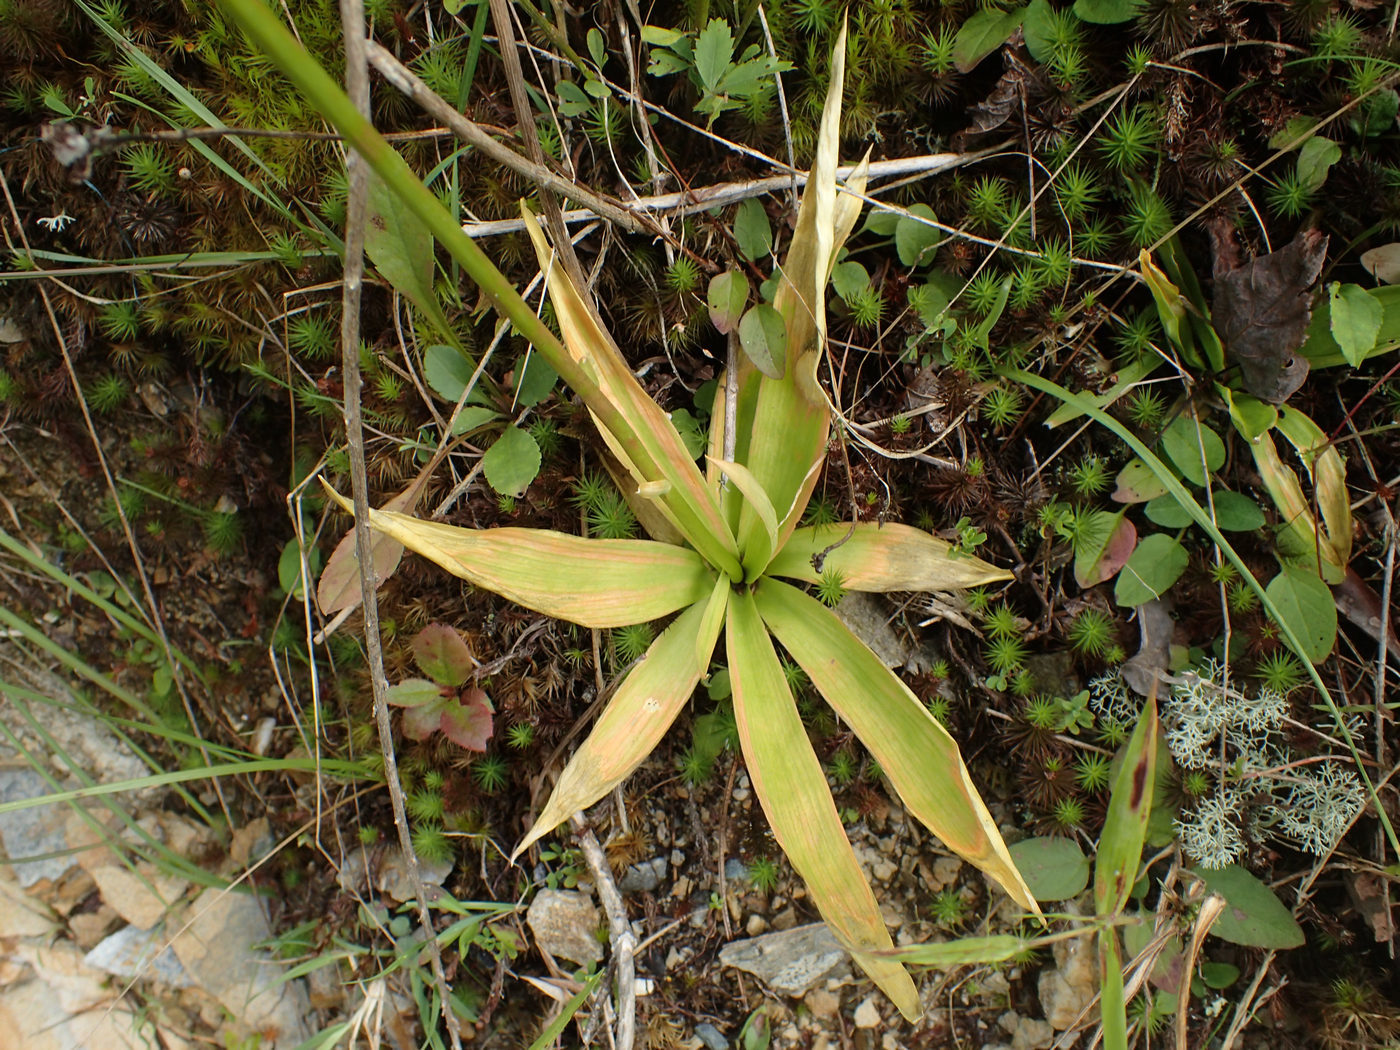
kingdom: Plantae
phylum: Tracheophyta
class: Liliopsida
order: Dioscoreales
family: Nartheciaceae
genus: Aletris
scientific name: Aletris farinosa
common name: Colicroot
